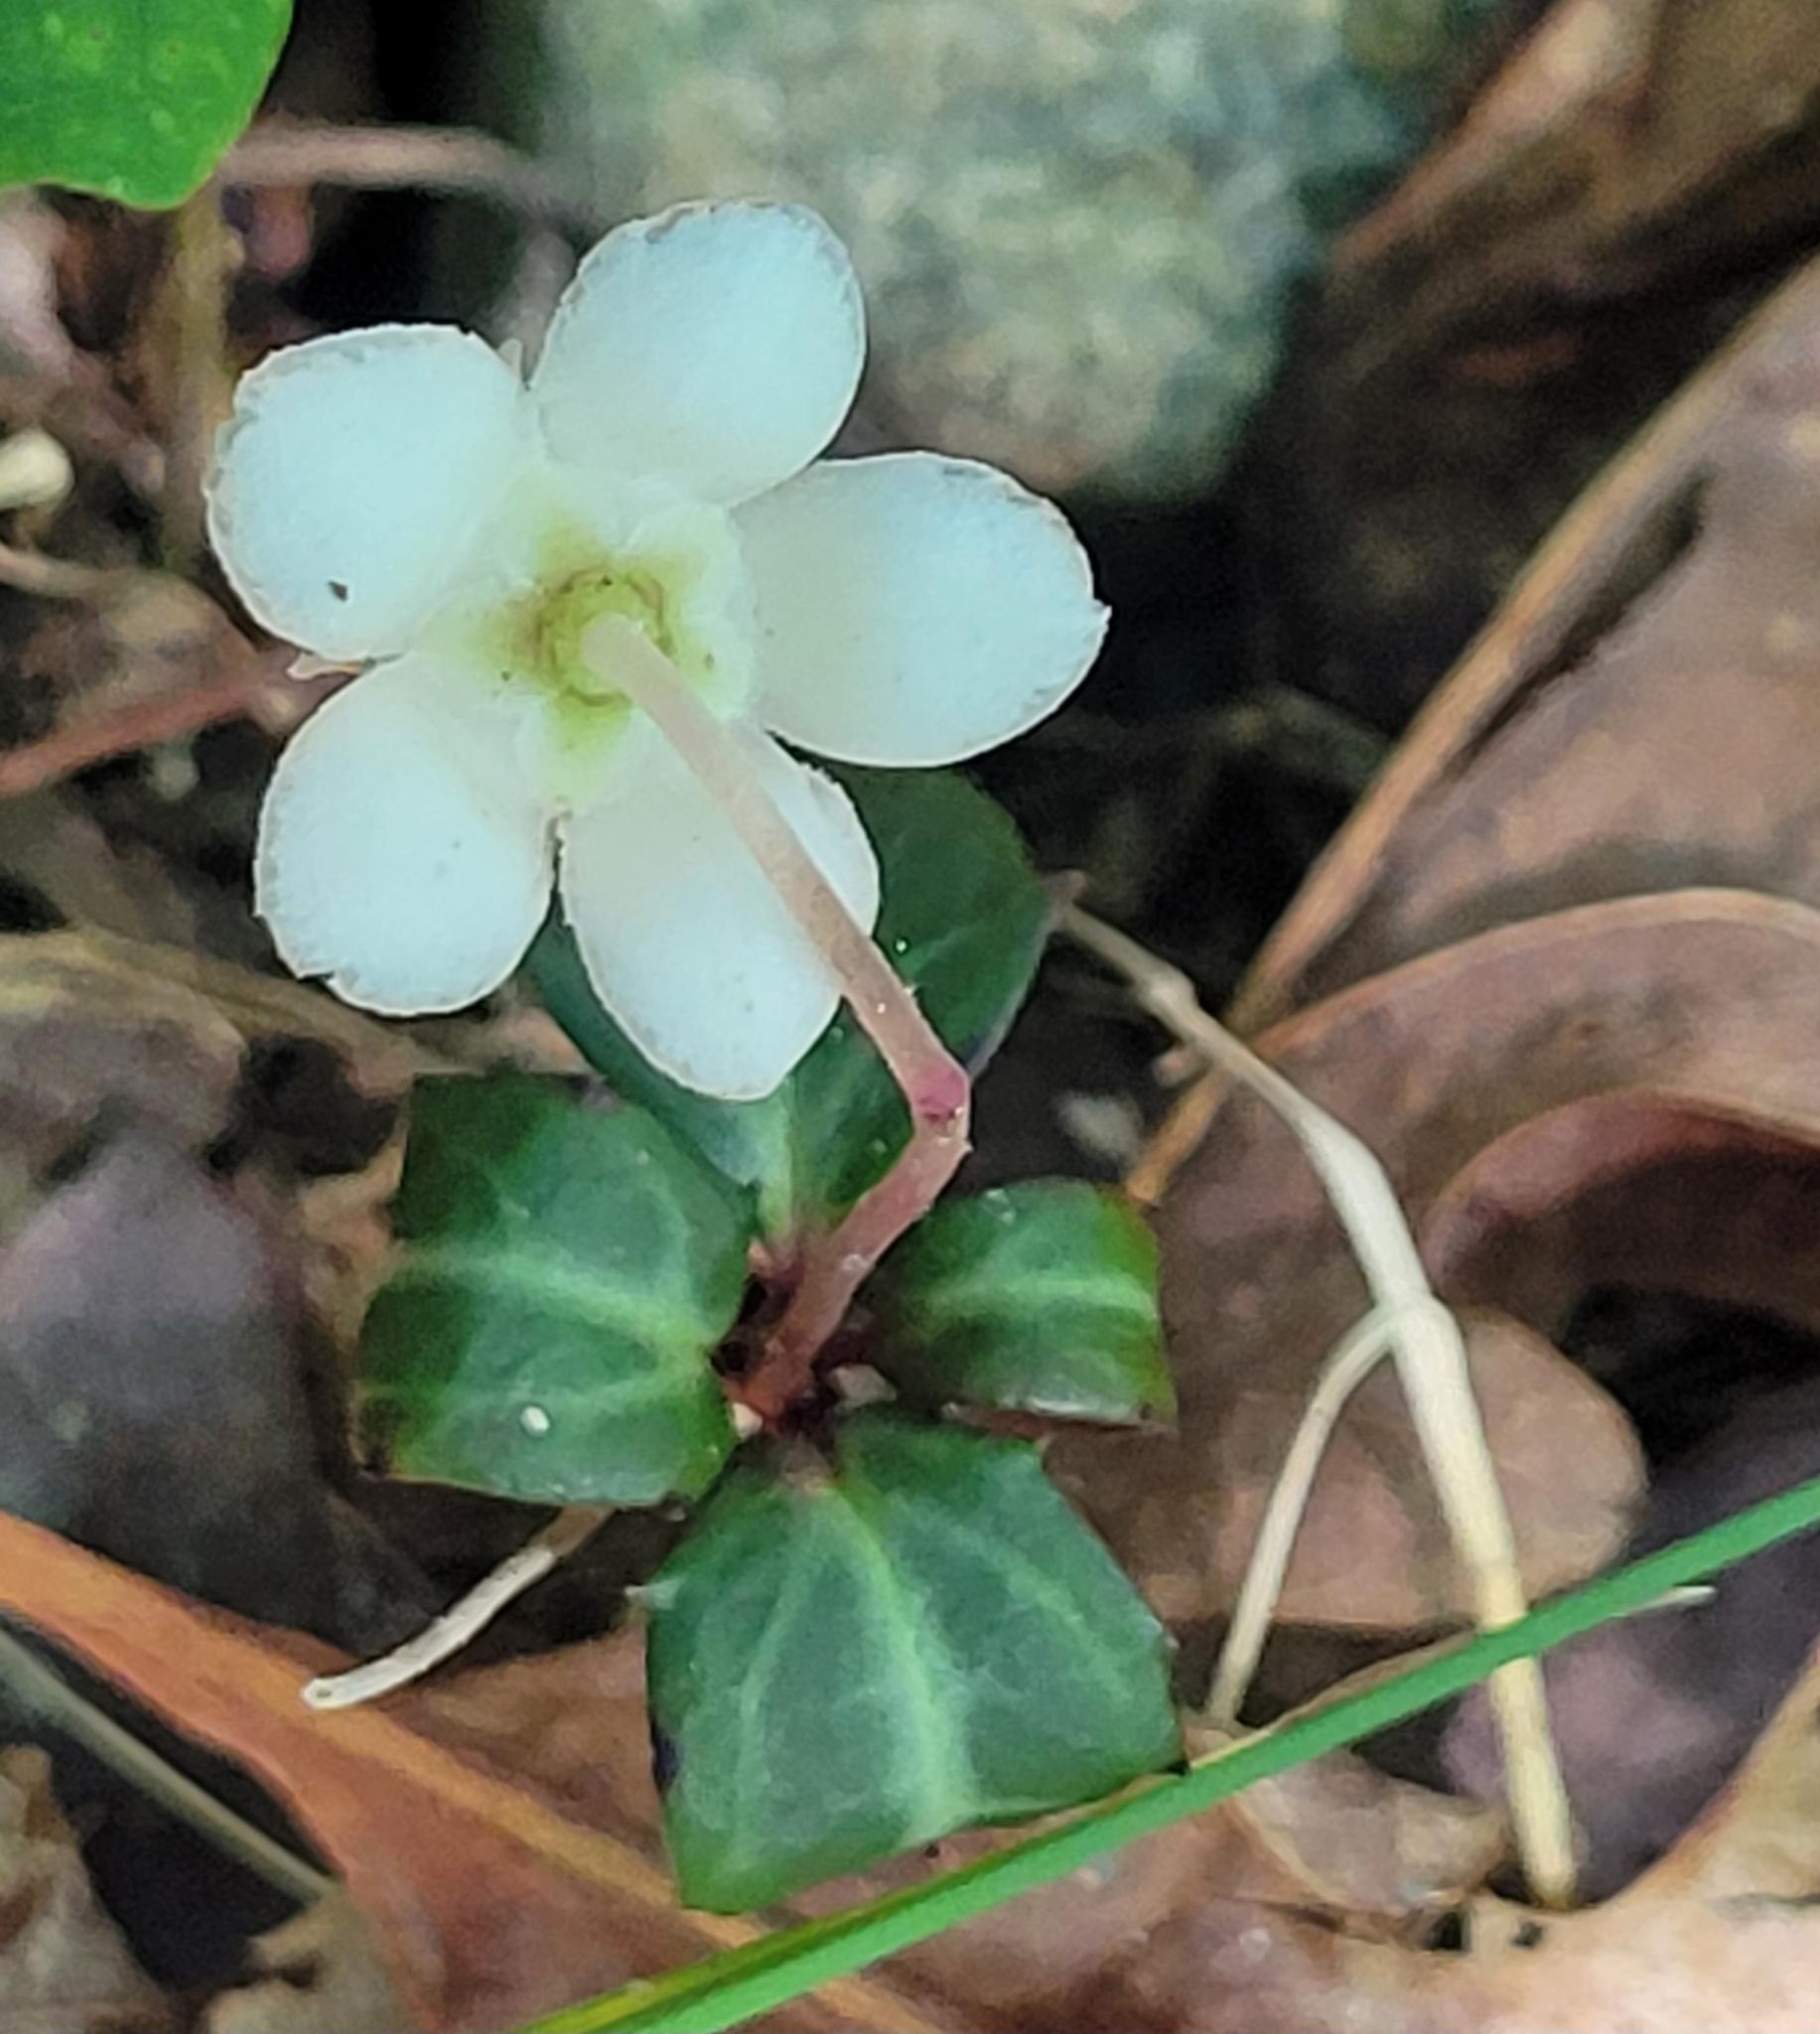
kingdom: Plantae
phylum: Tracheophyta
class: Magnoliopsida
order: Ericales
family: Ericaceae
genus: Chimaphila
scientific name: Chimaphila maculata
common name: Spotted pipsissewa
